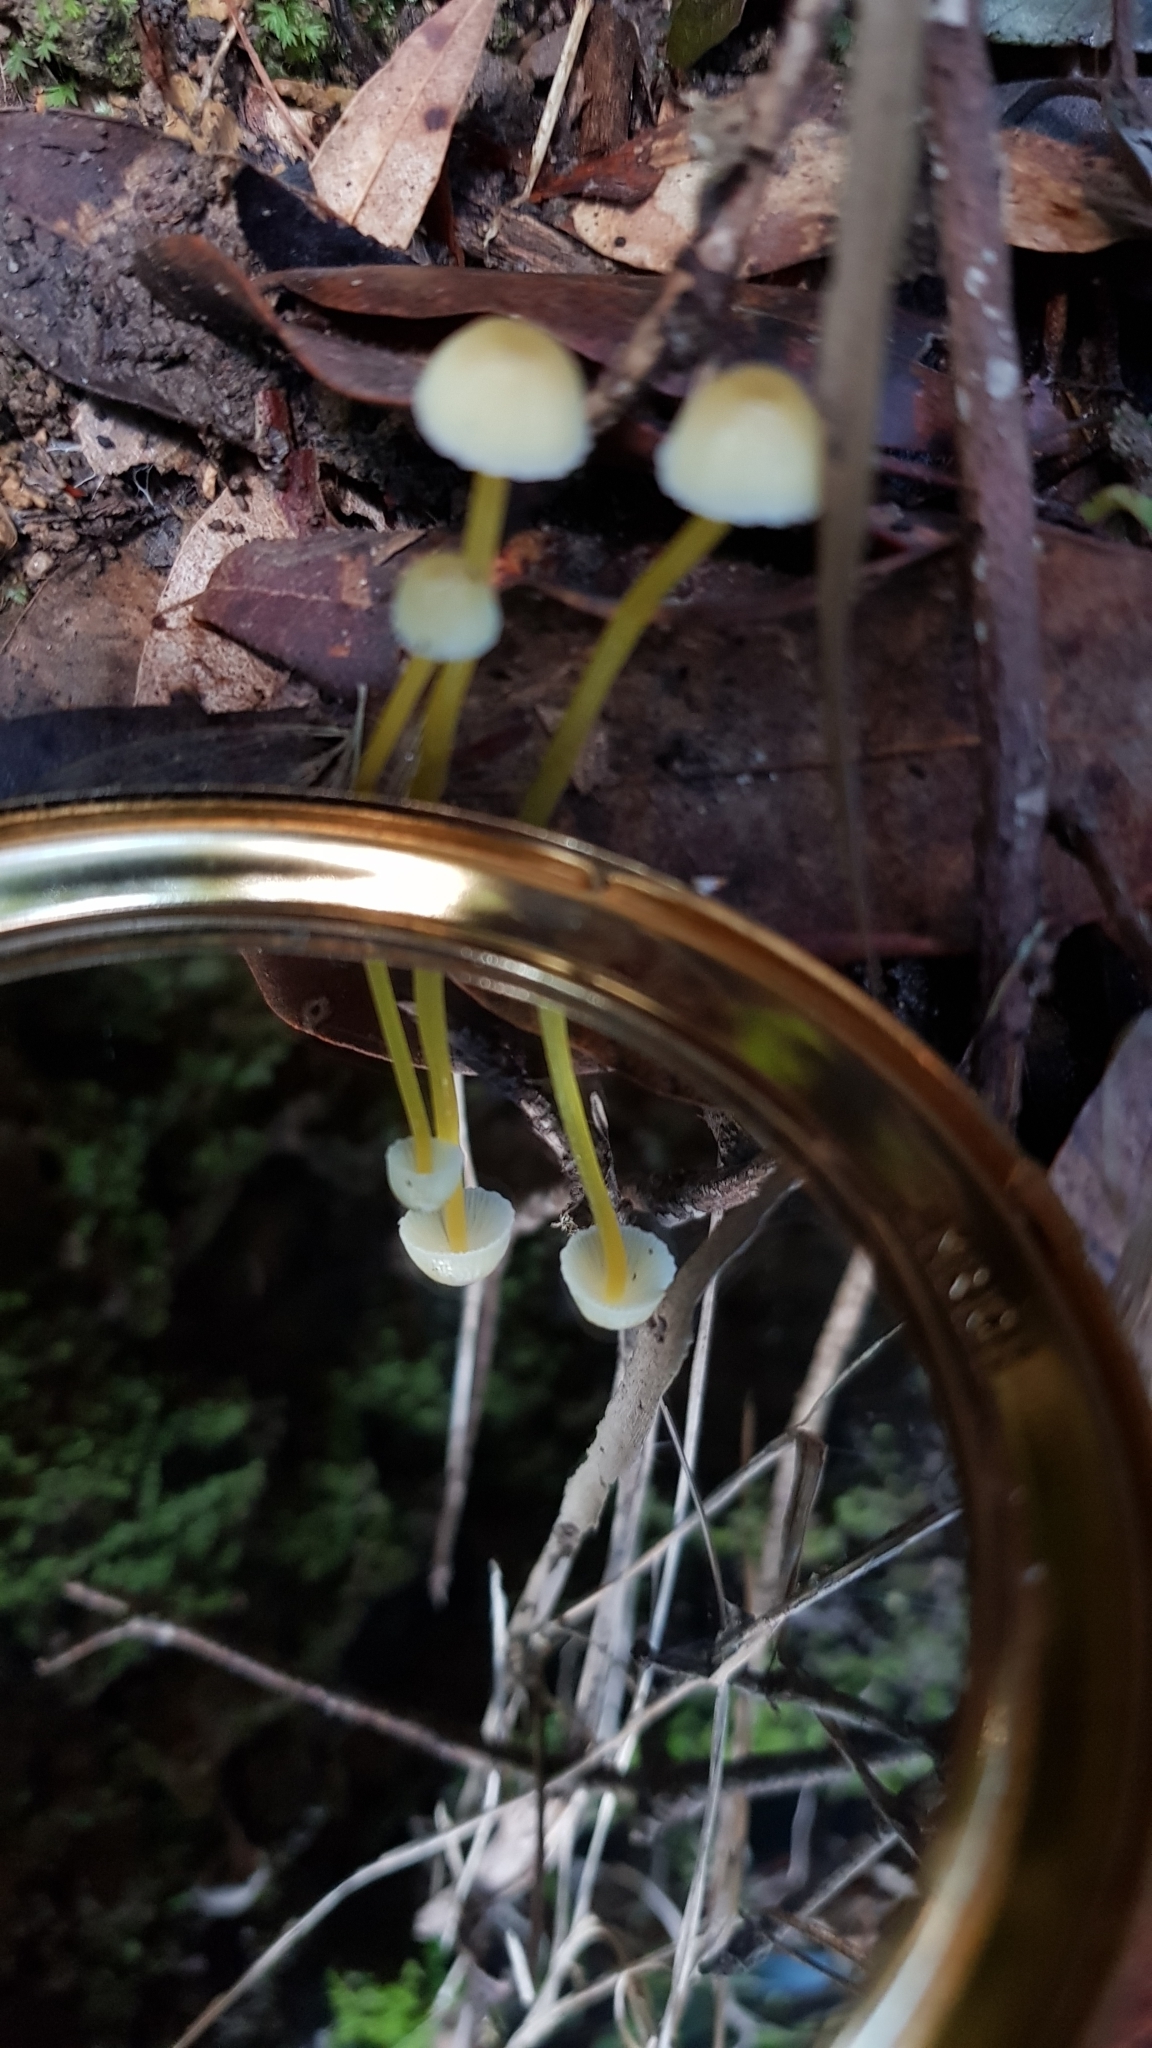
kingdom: Fungi
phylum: Basidiomycota
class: Agaricomycetes
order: Agaricales
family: Mycenaceae
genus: Mycena
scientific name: Mycena epipterygia
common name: Yellowleg bonnet
